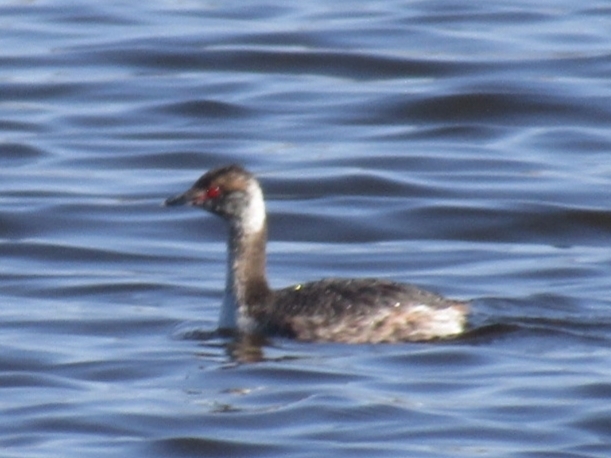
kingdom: Animalia
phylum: Chordata
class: Aves
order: Podicipediformes
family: Podicipedidae
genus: Podiceps
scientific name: Podiceps auritus
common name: Horned grebe
